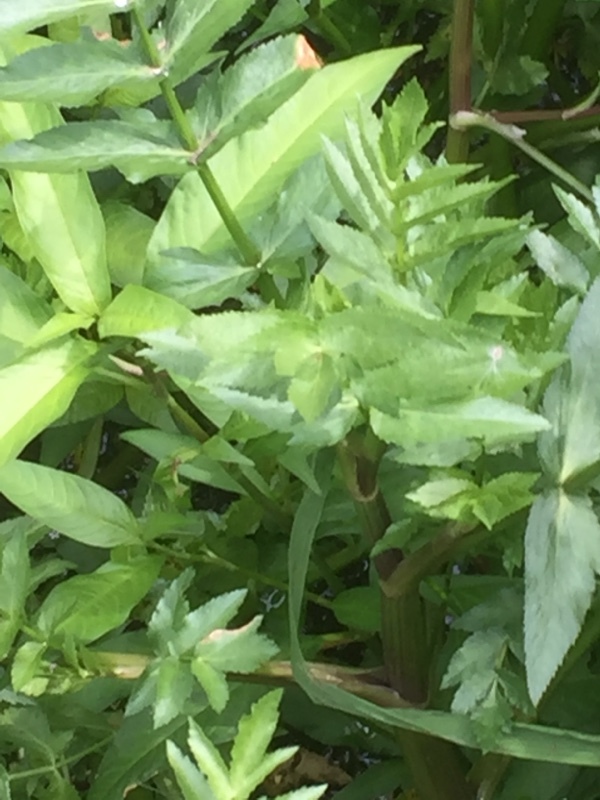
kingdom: Animalia
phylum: Arthropoda
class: Insecta
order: Odonata
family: Calopterygidae
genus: Calopteryx
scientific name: Calopteryx virgo
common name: Beautiful demoiselle
